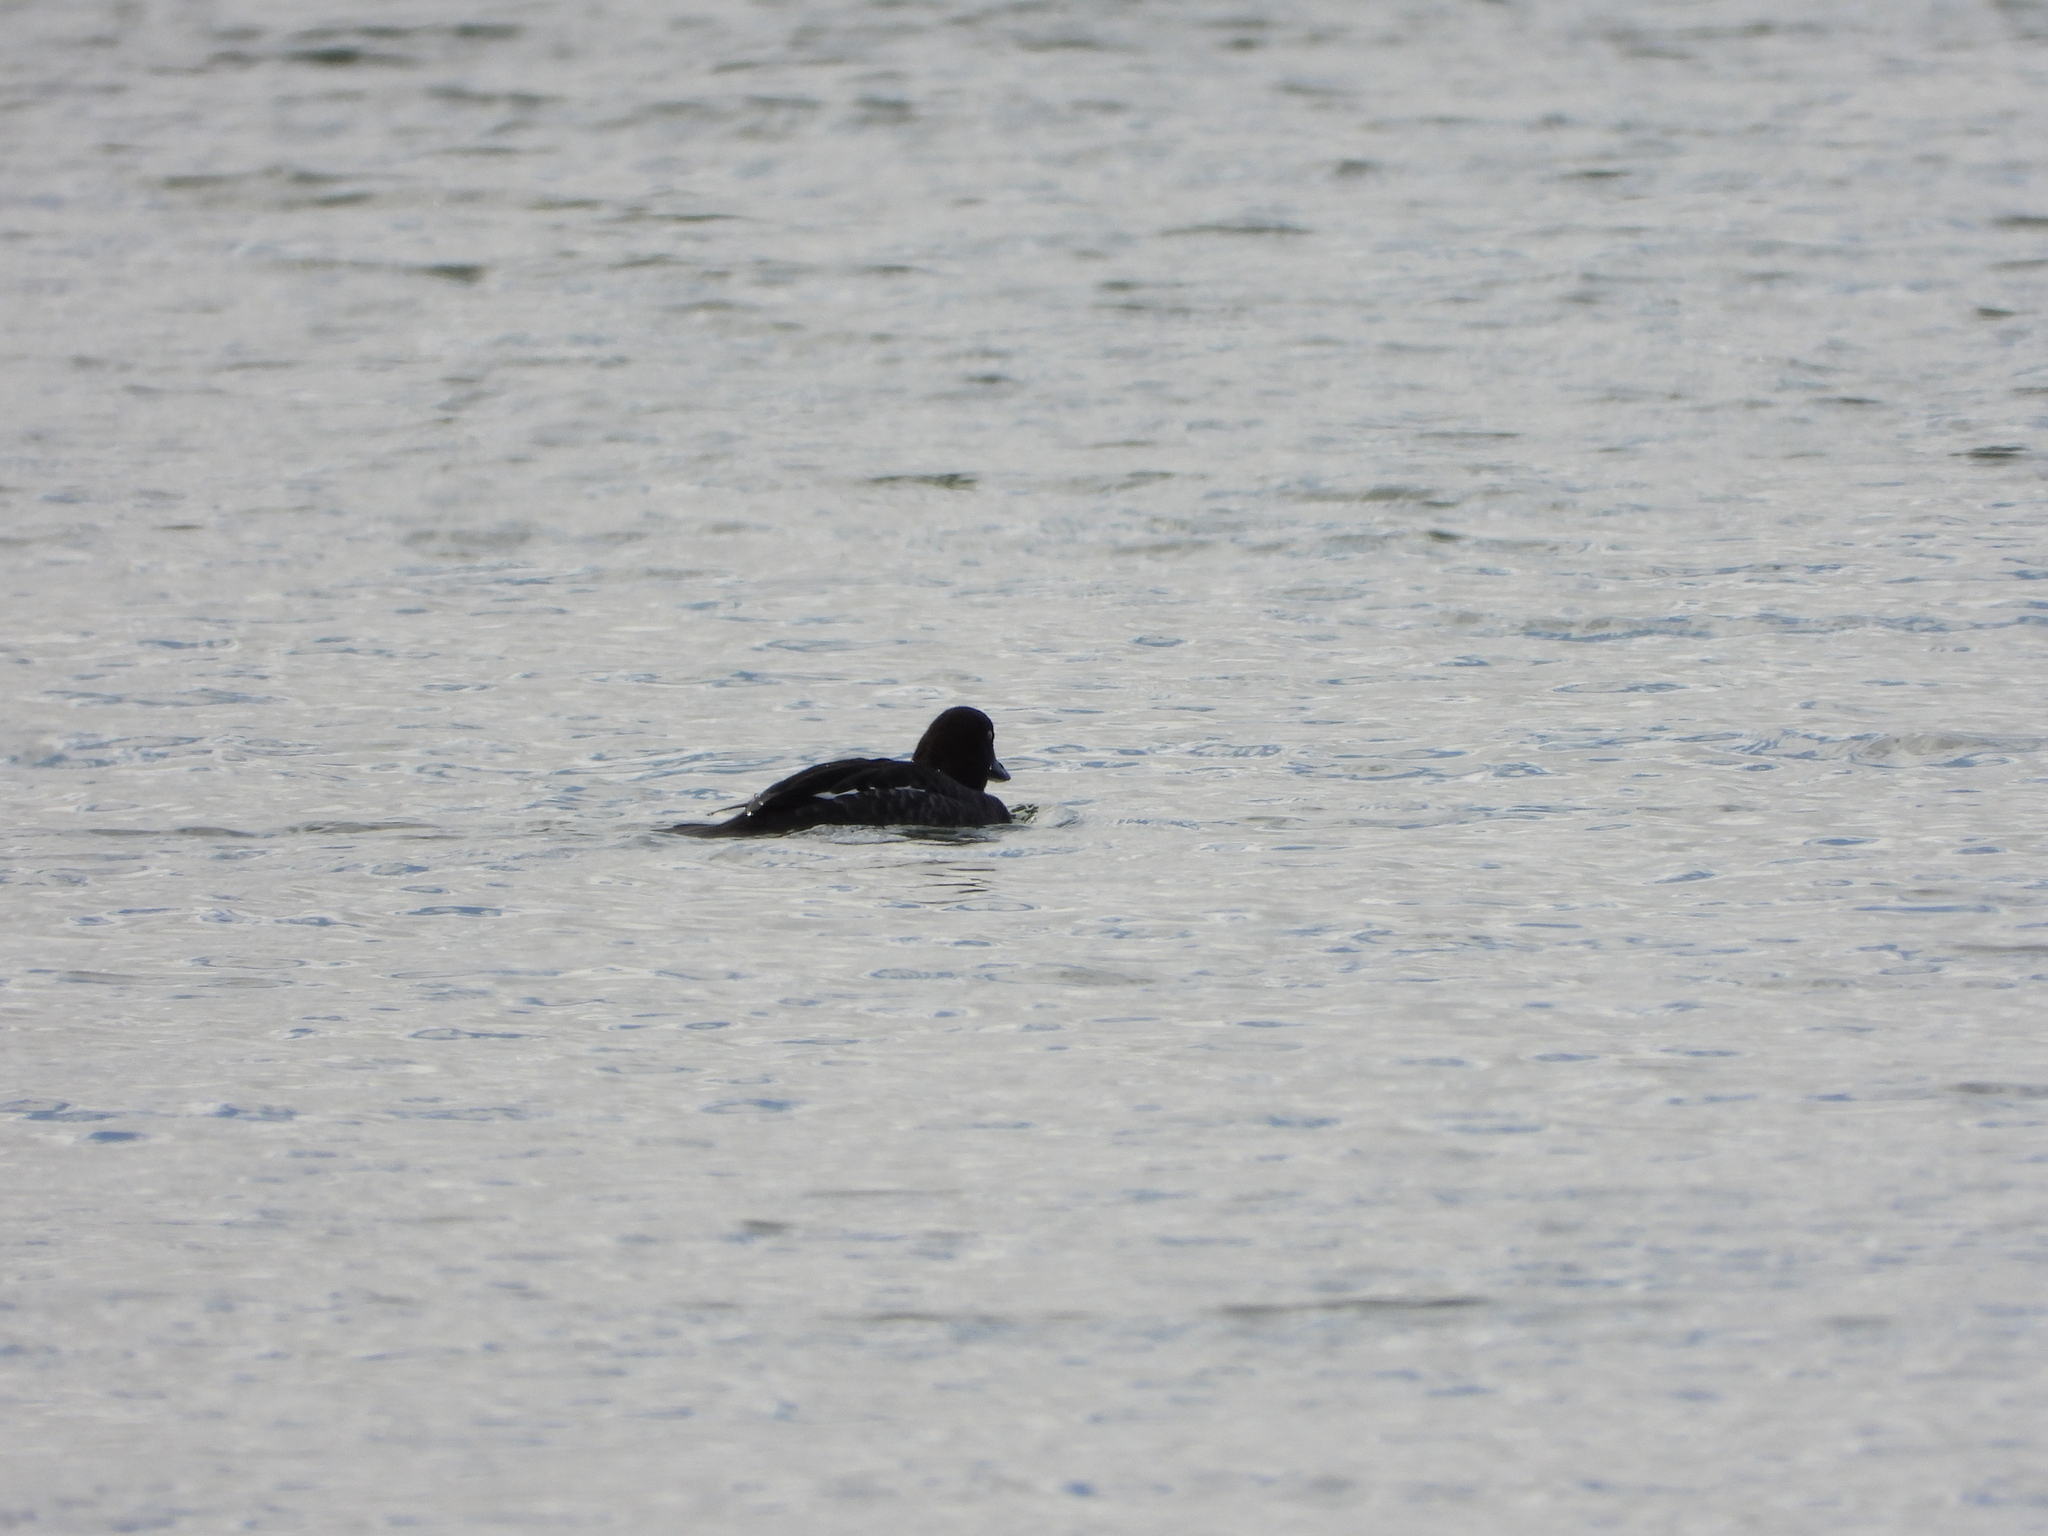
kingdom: Animalia
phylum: Chordata
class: Aves
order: Anseriformes
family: Anatidae
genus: Bucephala
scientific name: Bucephala clangula
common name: Common goldeneye
